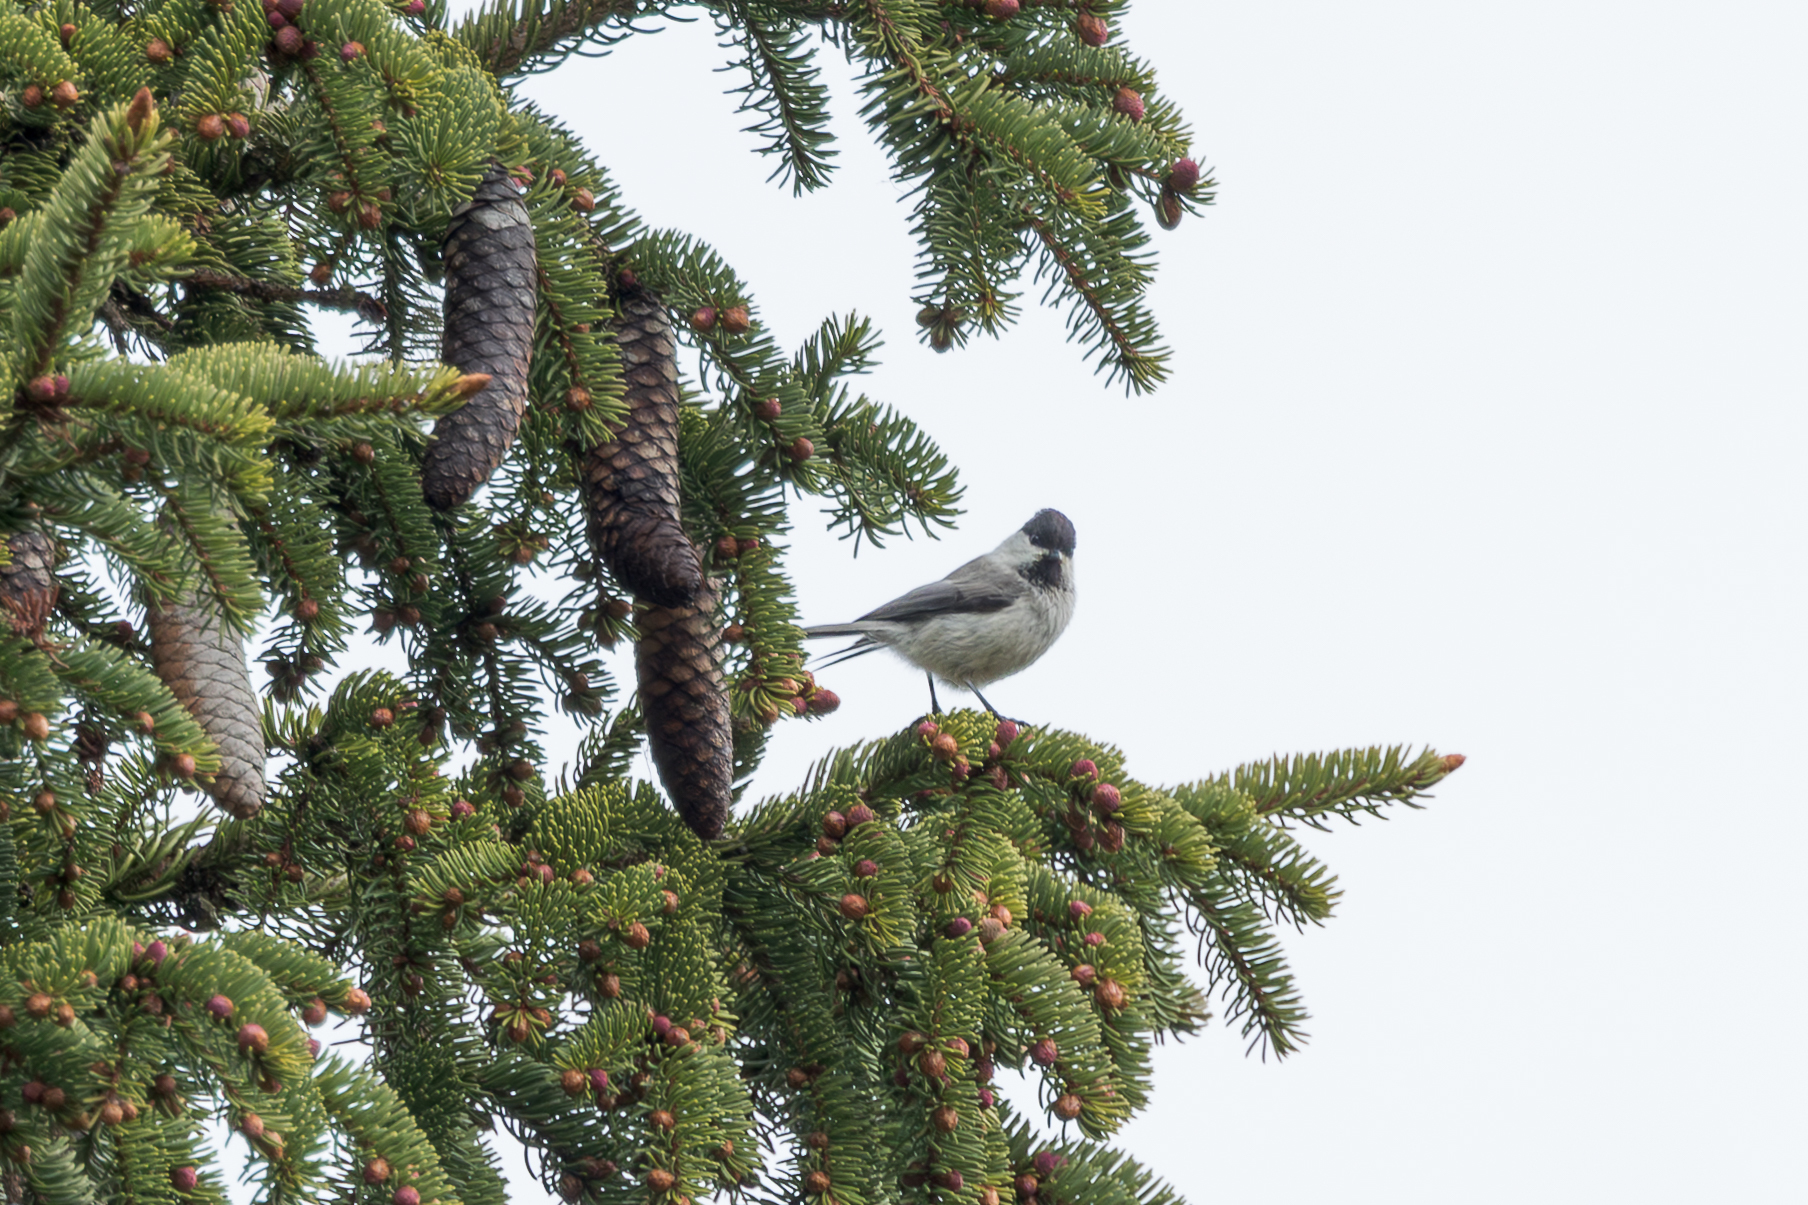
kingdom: Animalia
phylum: Chordata
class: Aves
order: Passeriformes
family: Paridae
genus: Poecile
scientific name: Poecile montanus
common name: Willow tit
